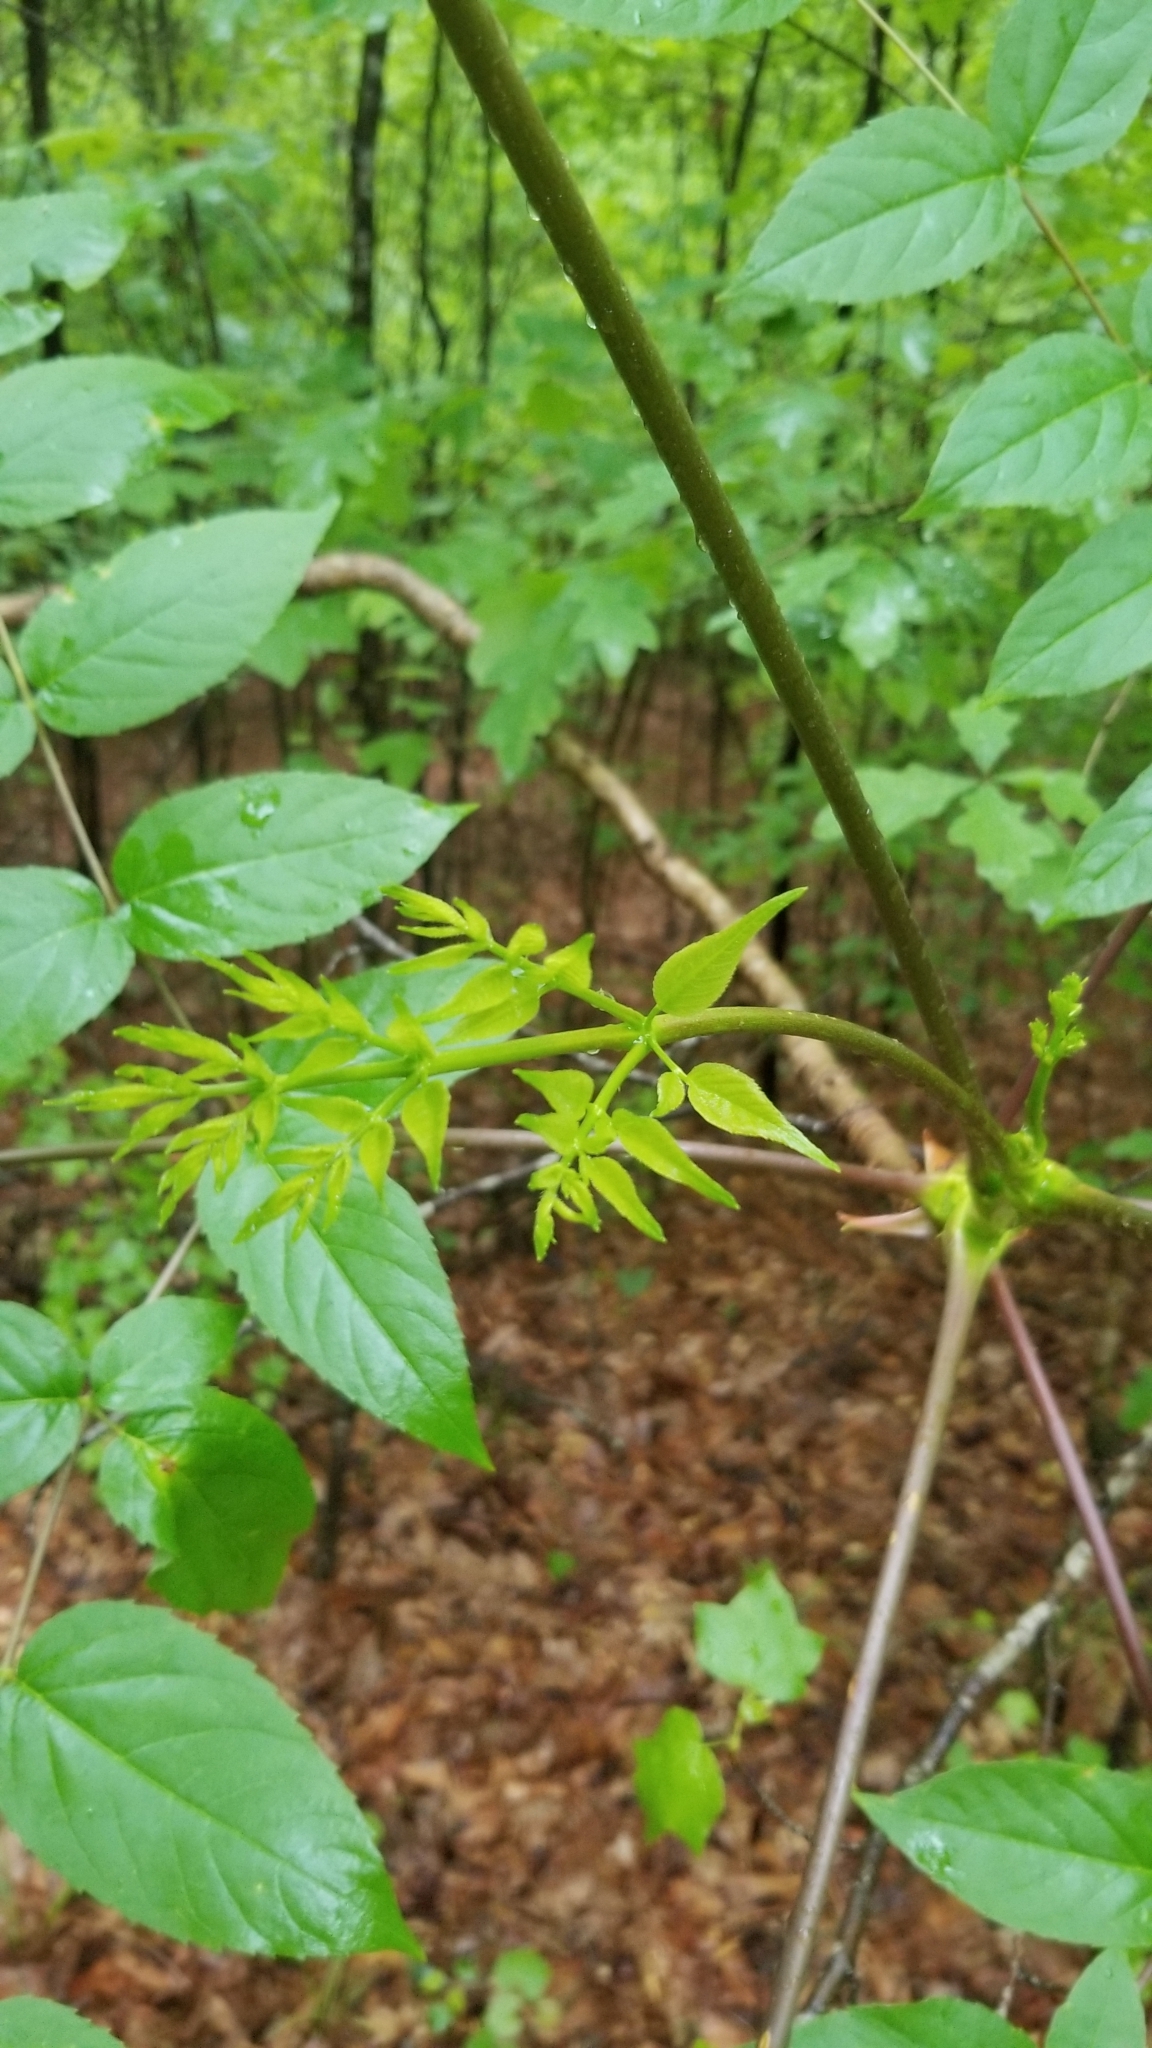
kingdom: Plantae
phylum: Tracheophyta
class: Magnoliopsida
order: Apiales
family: Araliaceae
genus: Aralia
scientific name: Aralia spinosa
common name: Hercules'-club
